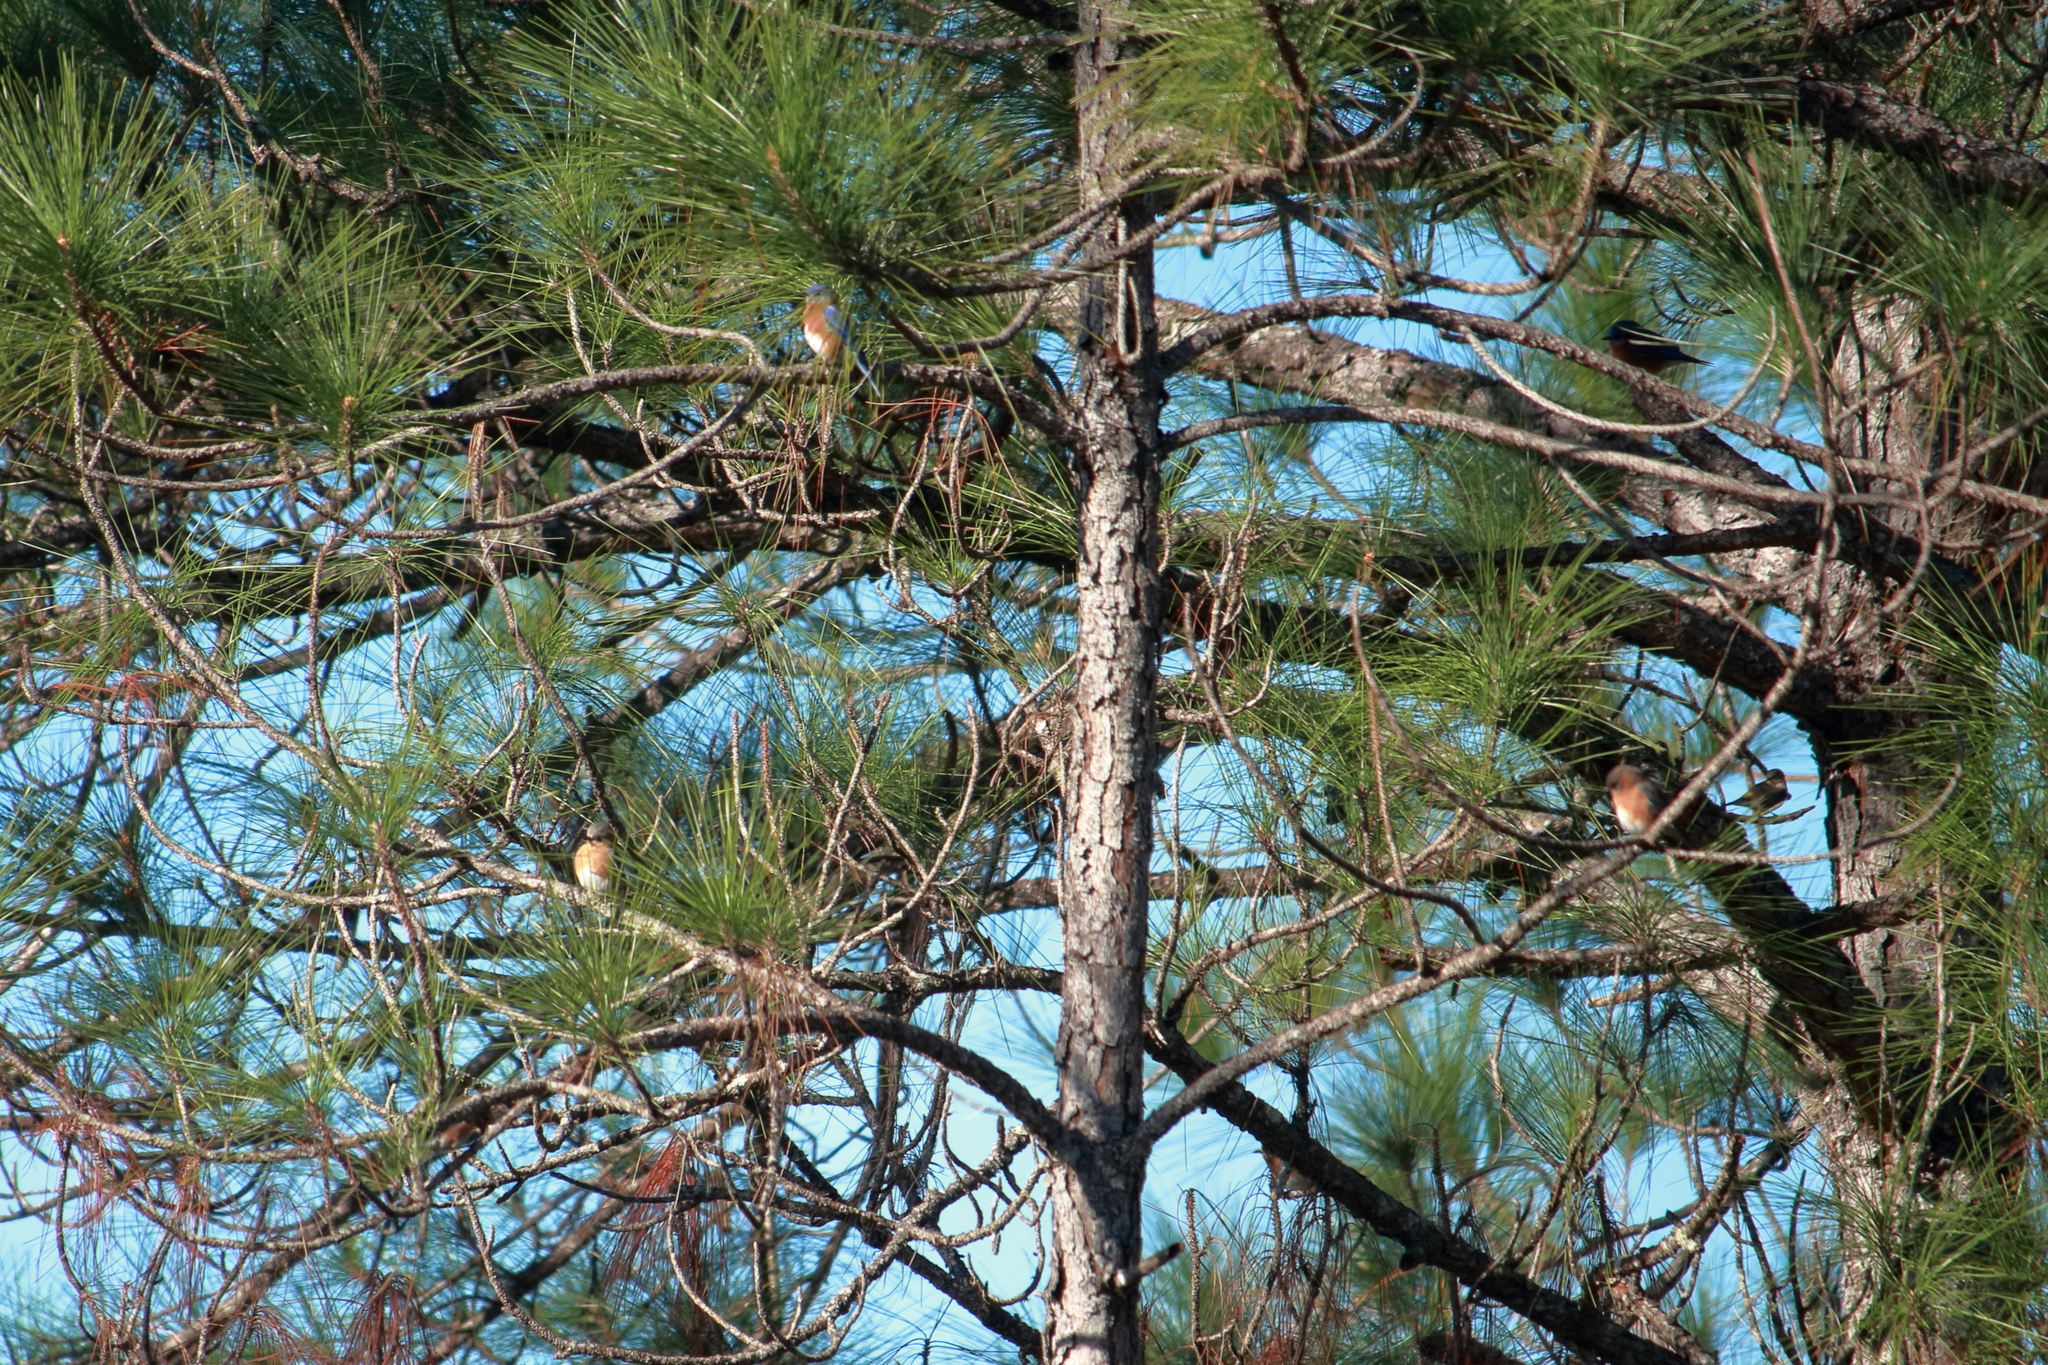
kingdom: Animalia
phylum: Chordata
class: Aves
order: Passeriformes
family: Turdidae
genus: Sialia
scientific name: Sialia sialis
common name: Eastern bluebird
